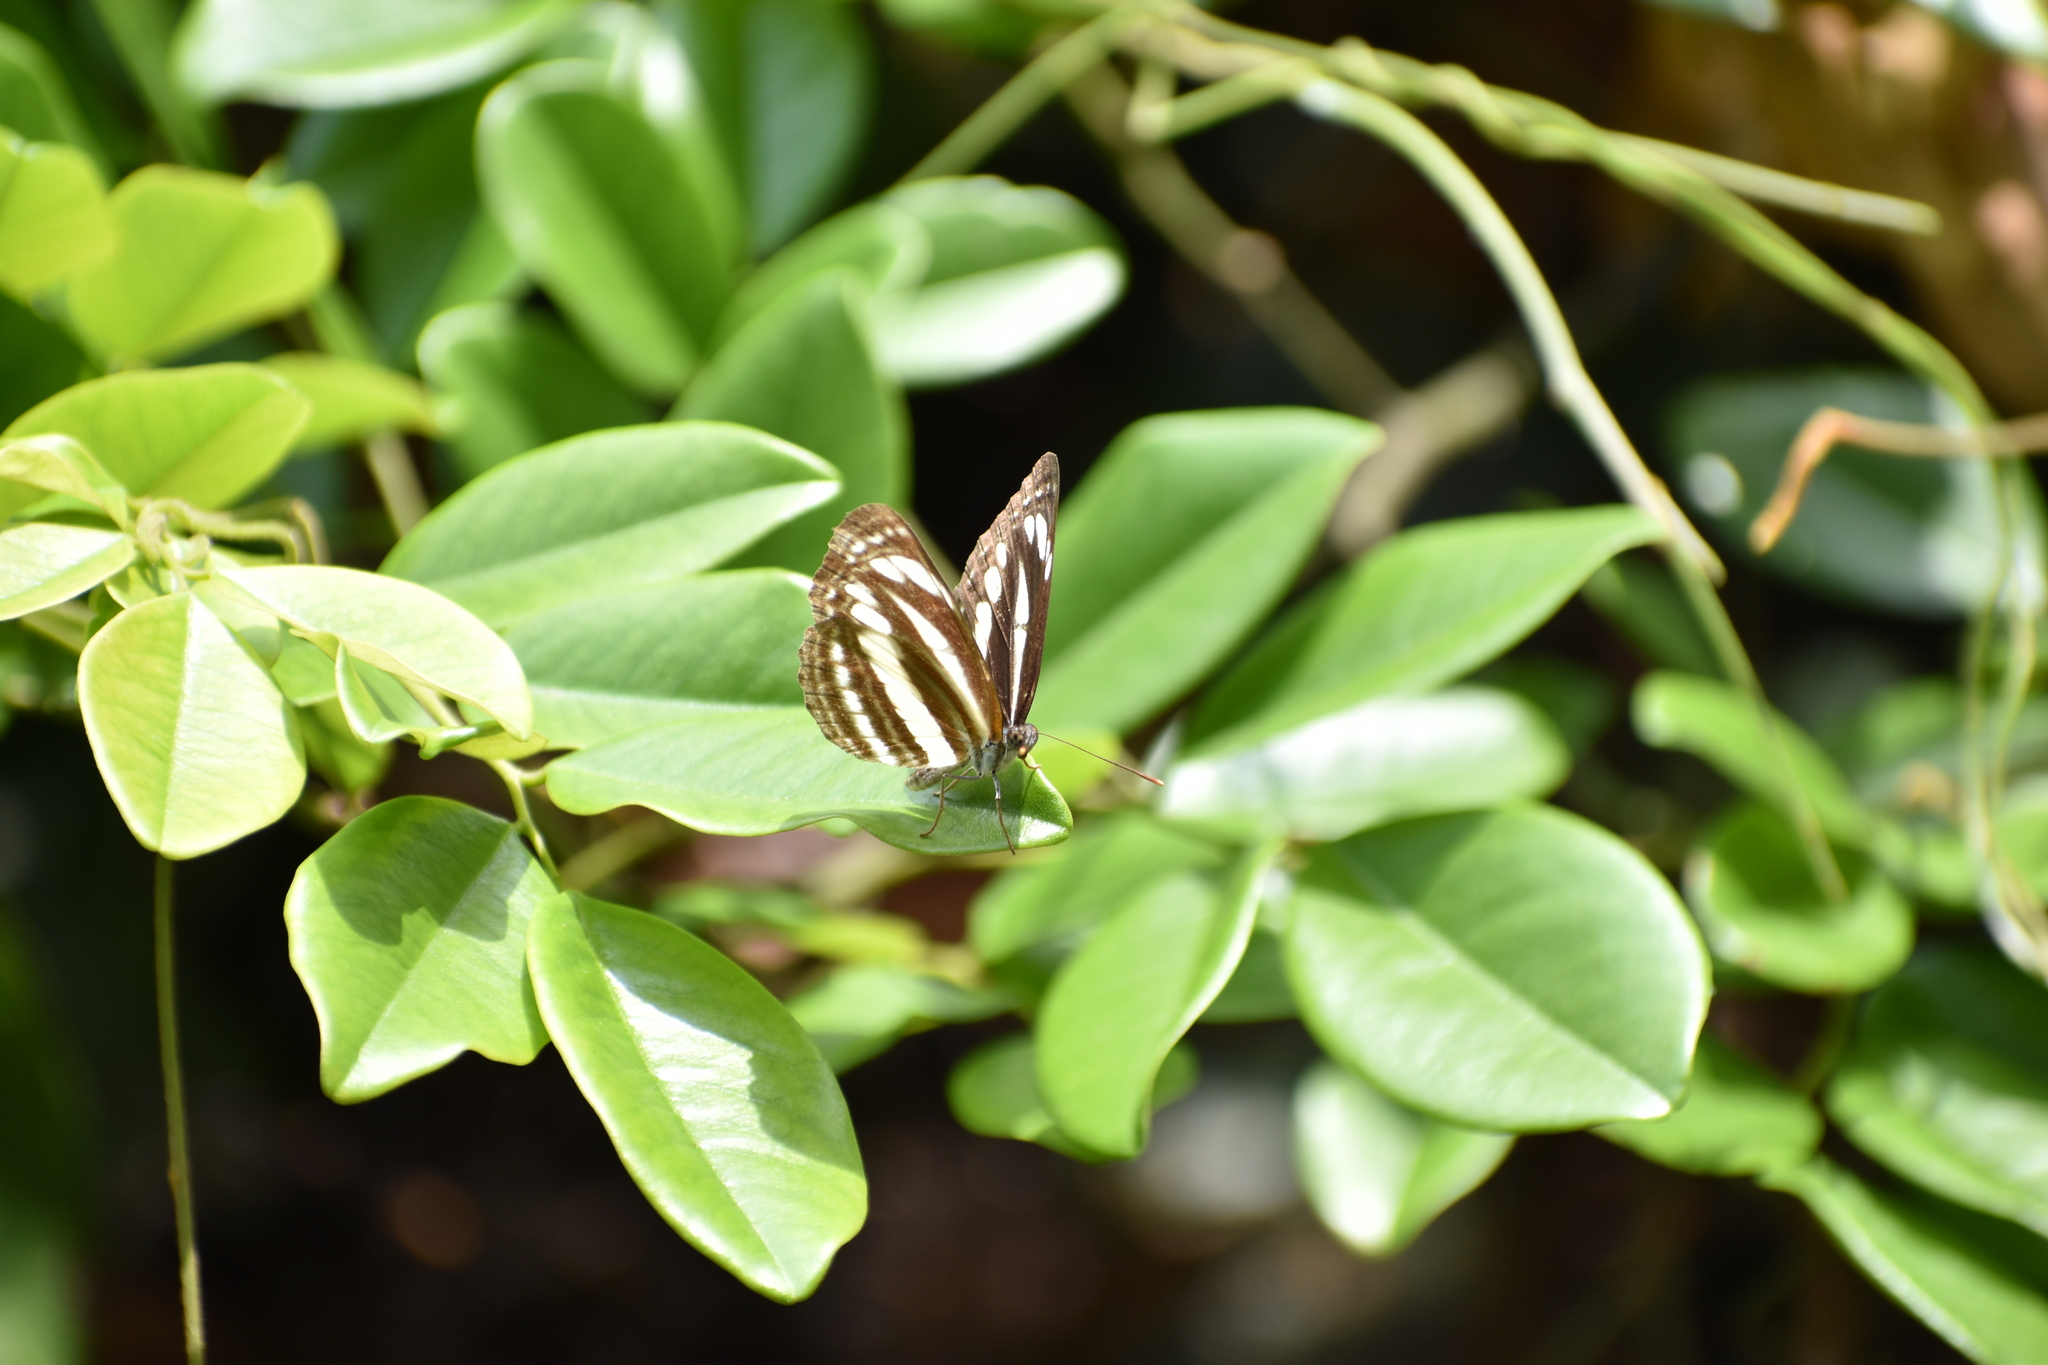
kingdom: Animalia
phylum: Arthropoda
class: Insecta
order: Lepidoptera
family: Nymphalidae
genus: Neptis
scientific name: Neptis clinia
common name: Southern sullied sailer
